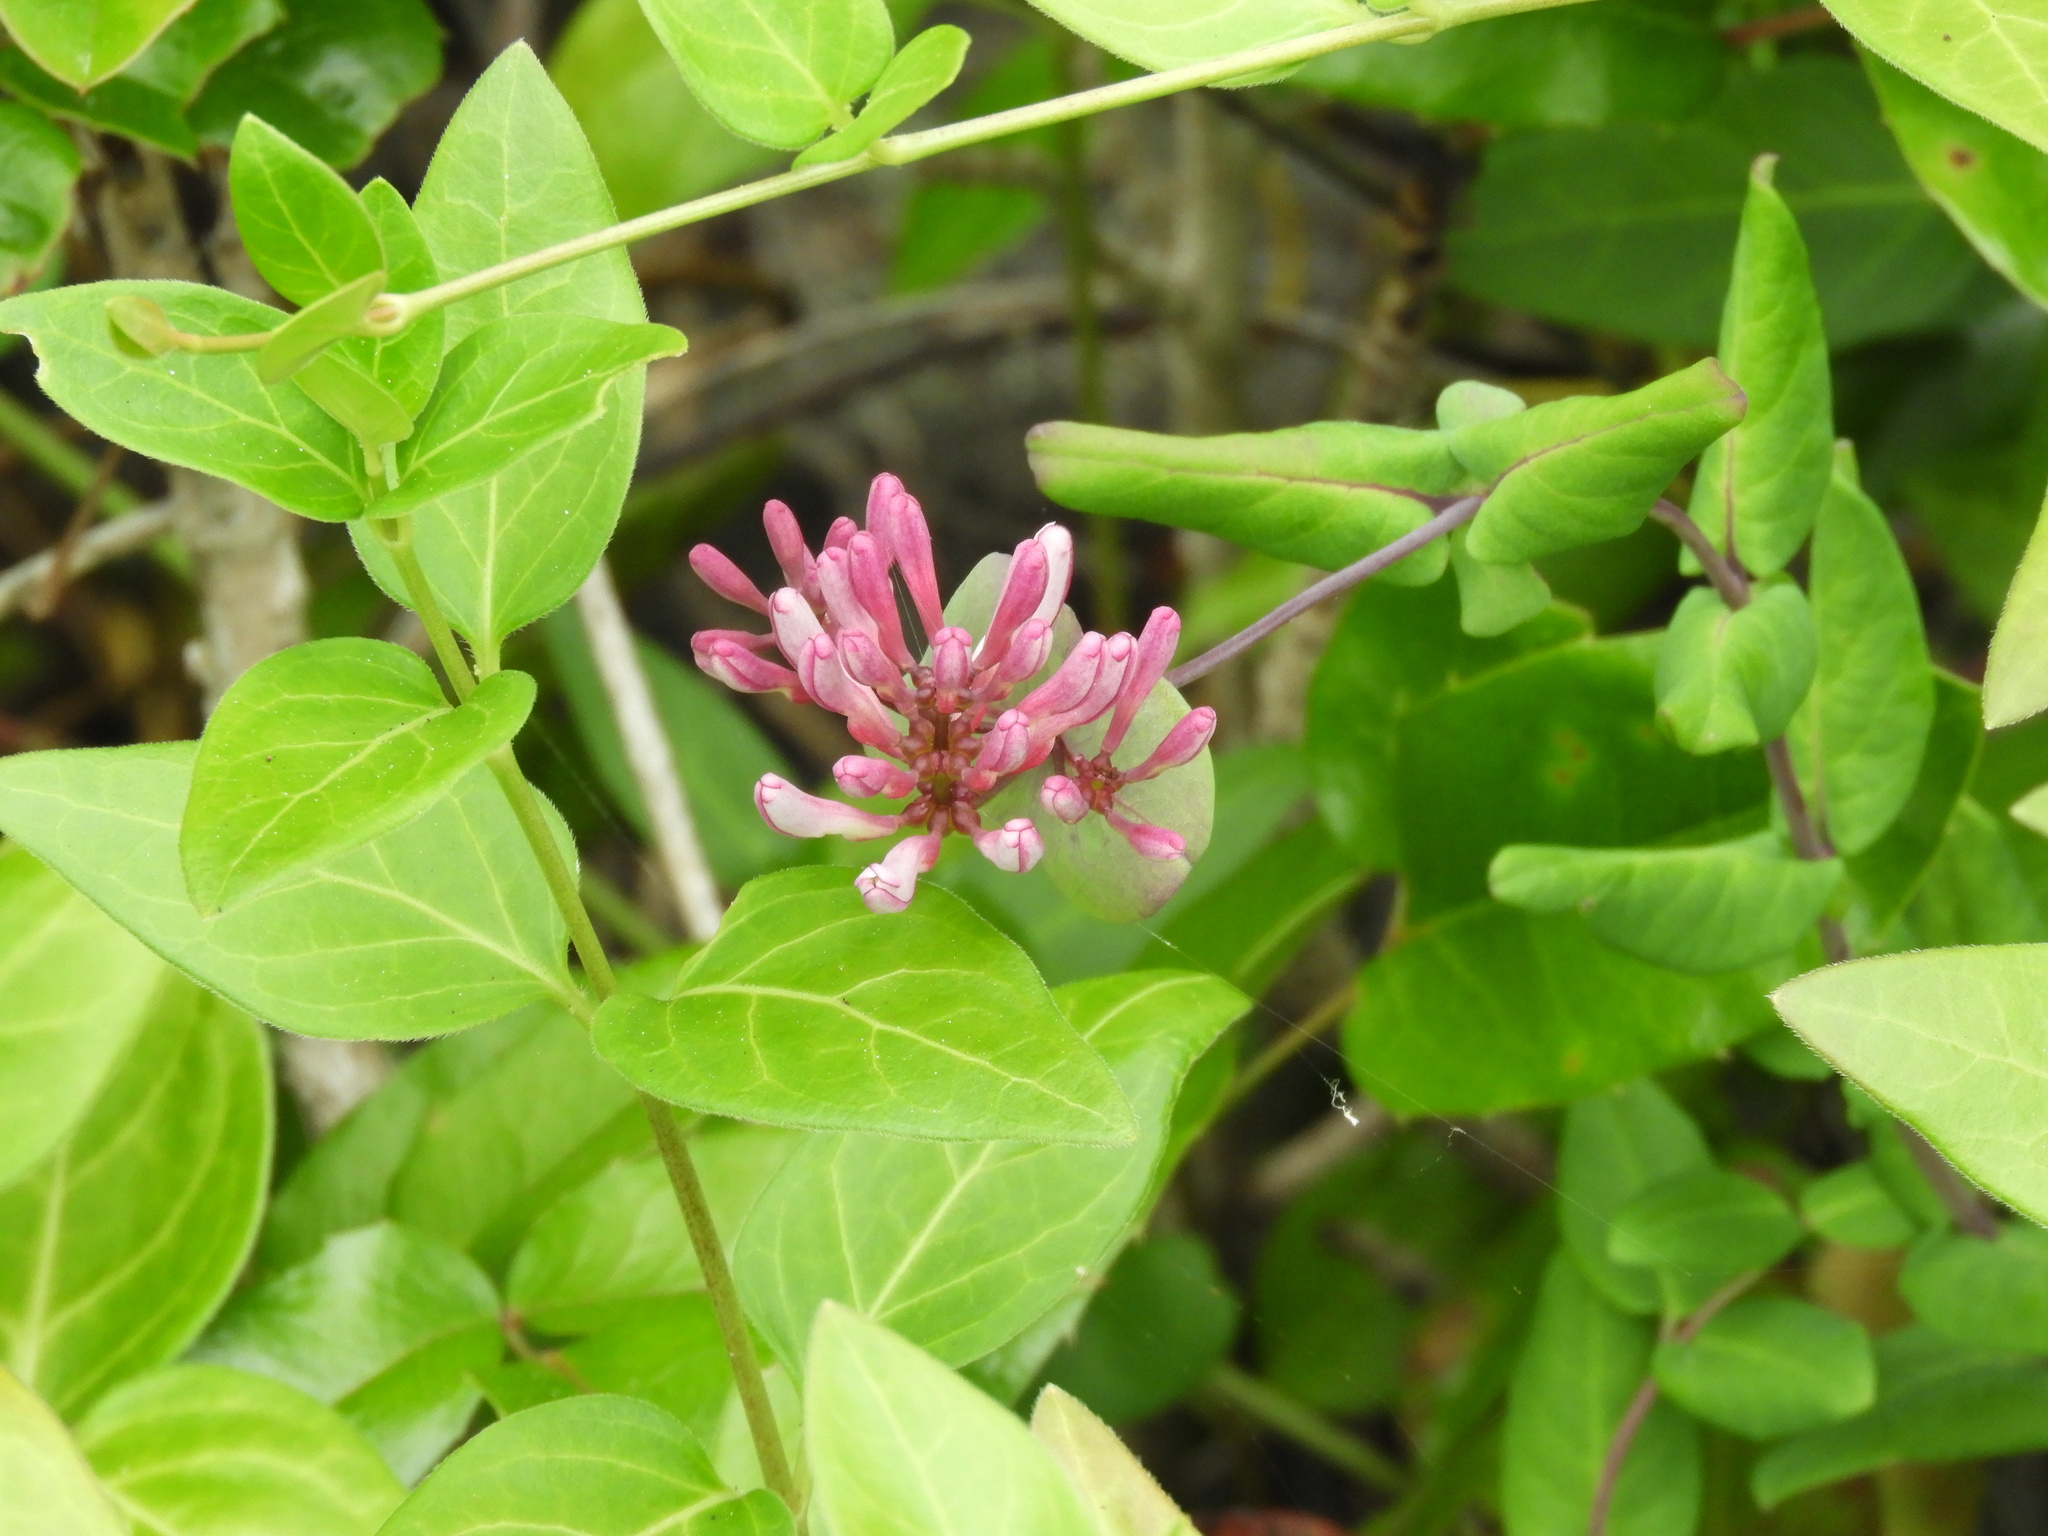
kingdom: Plantae
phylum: Tracheophyta
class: Magnoliopsida
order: Dipsacales
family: Caprifoliaceae
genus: Lonicera
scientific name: Lonicera hispidula
